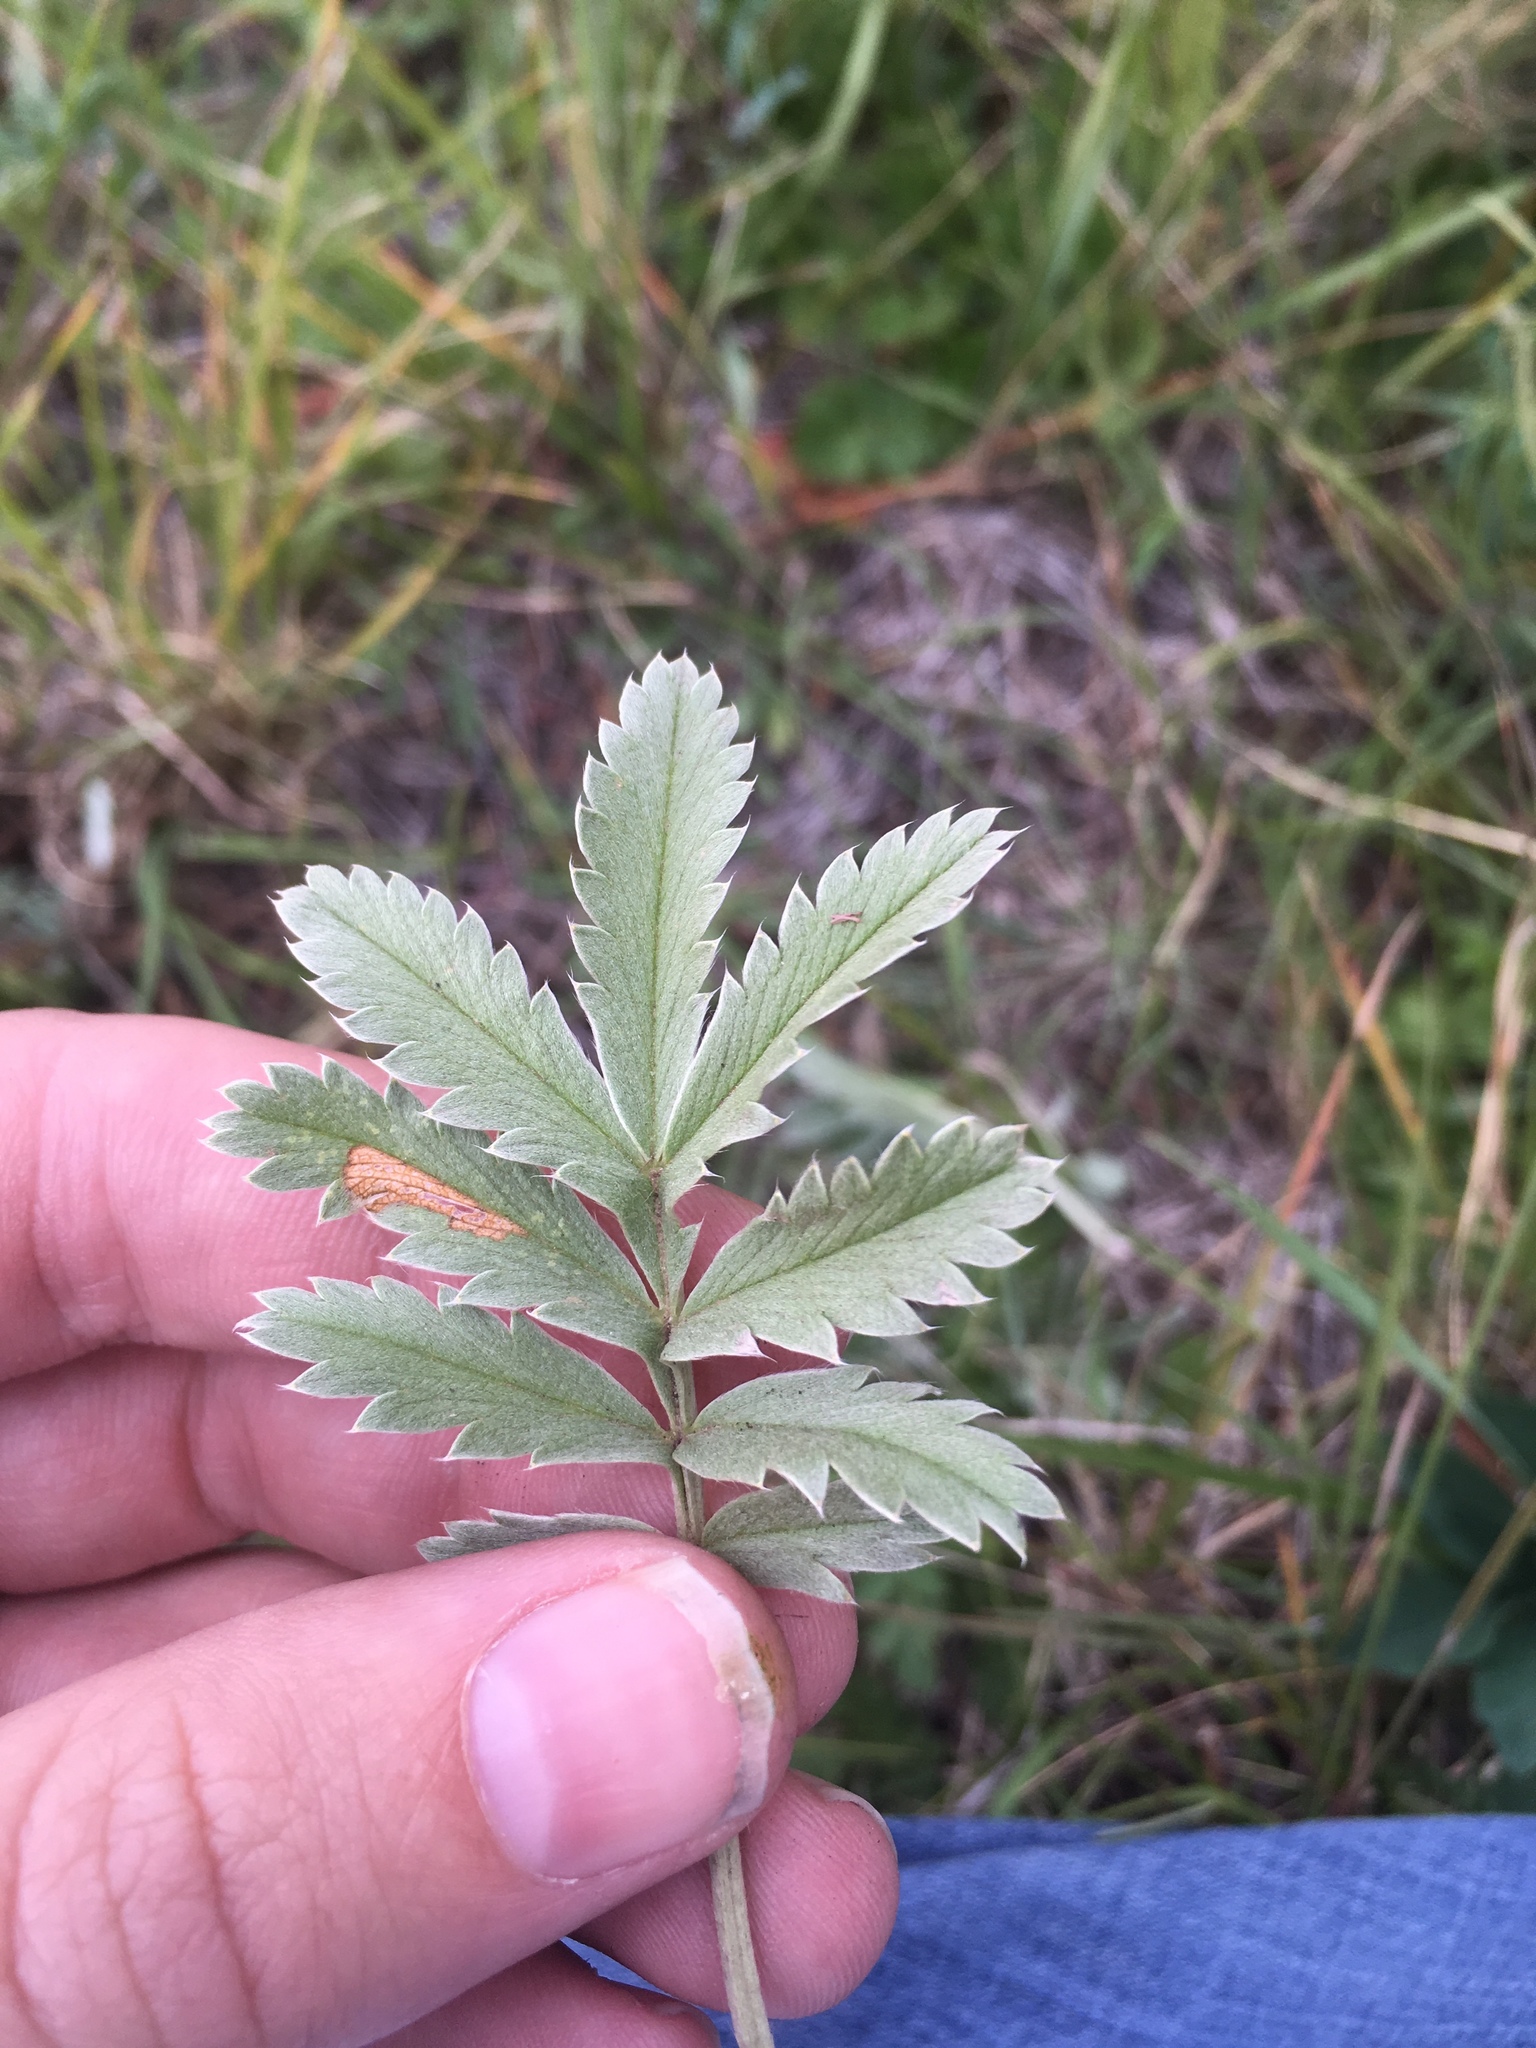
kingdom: Plantae
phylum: Tracheophyta
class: Magnoliopsida
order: Rosales
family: Rosaceae
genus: Potentilla
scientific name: Potentilla hippiana
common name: Woolly cinquefoil
